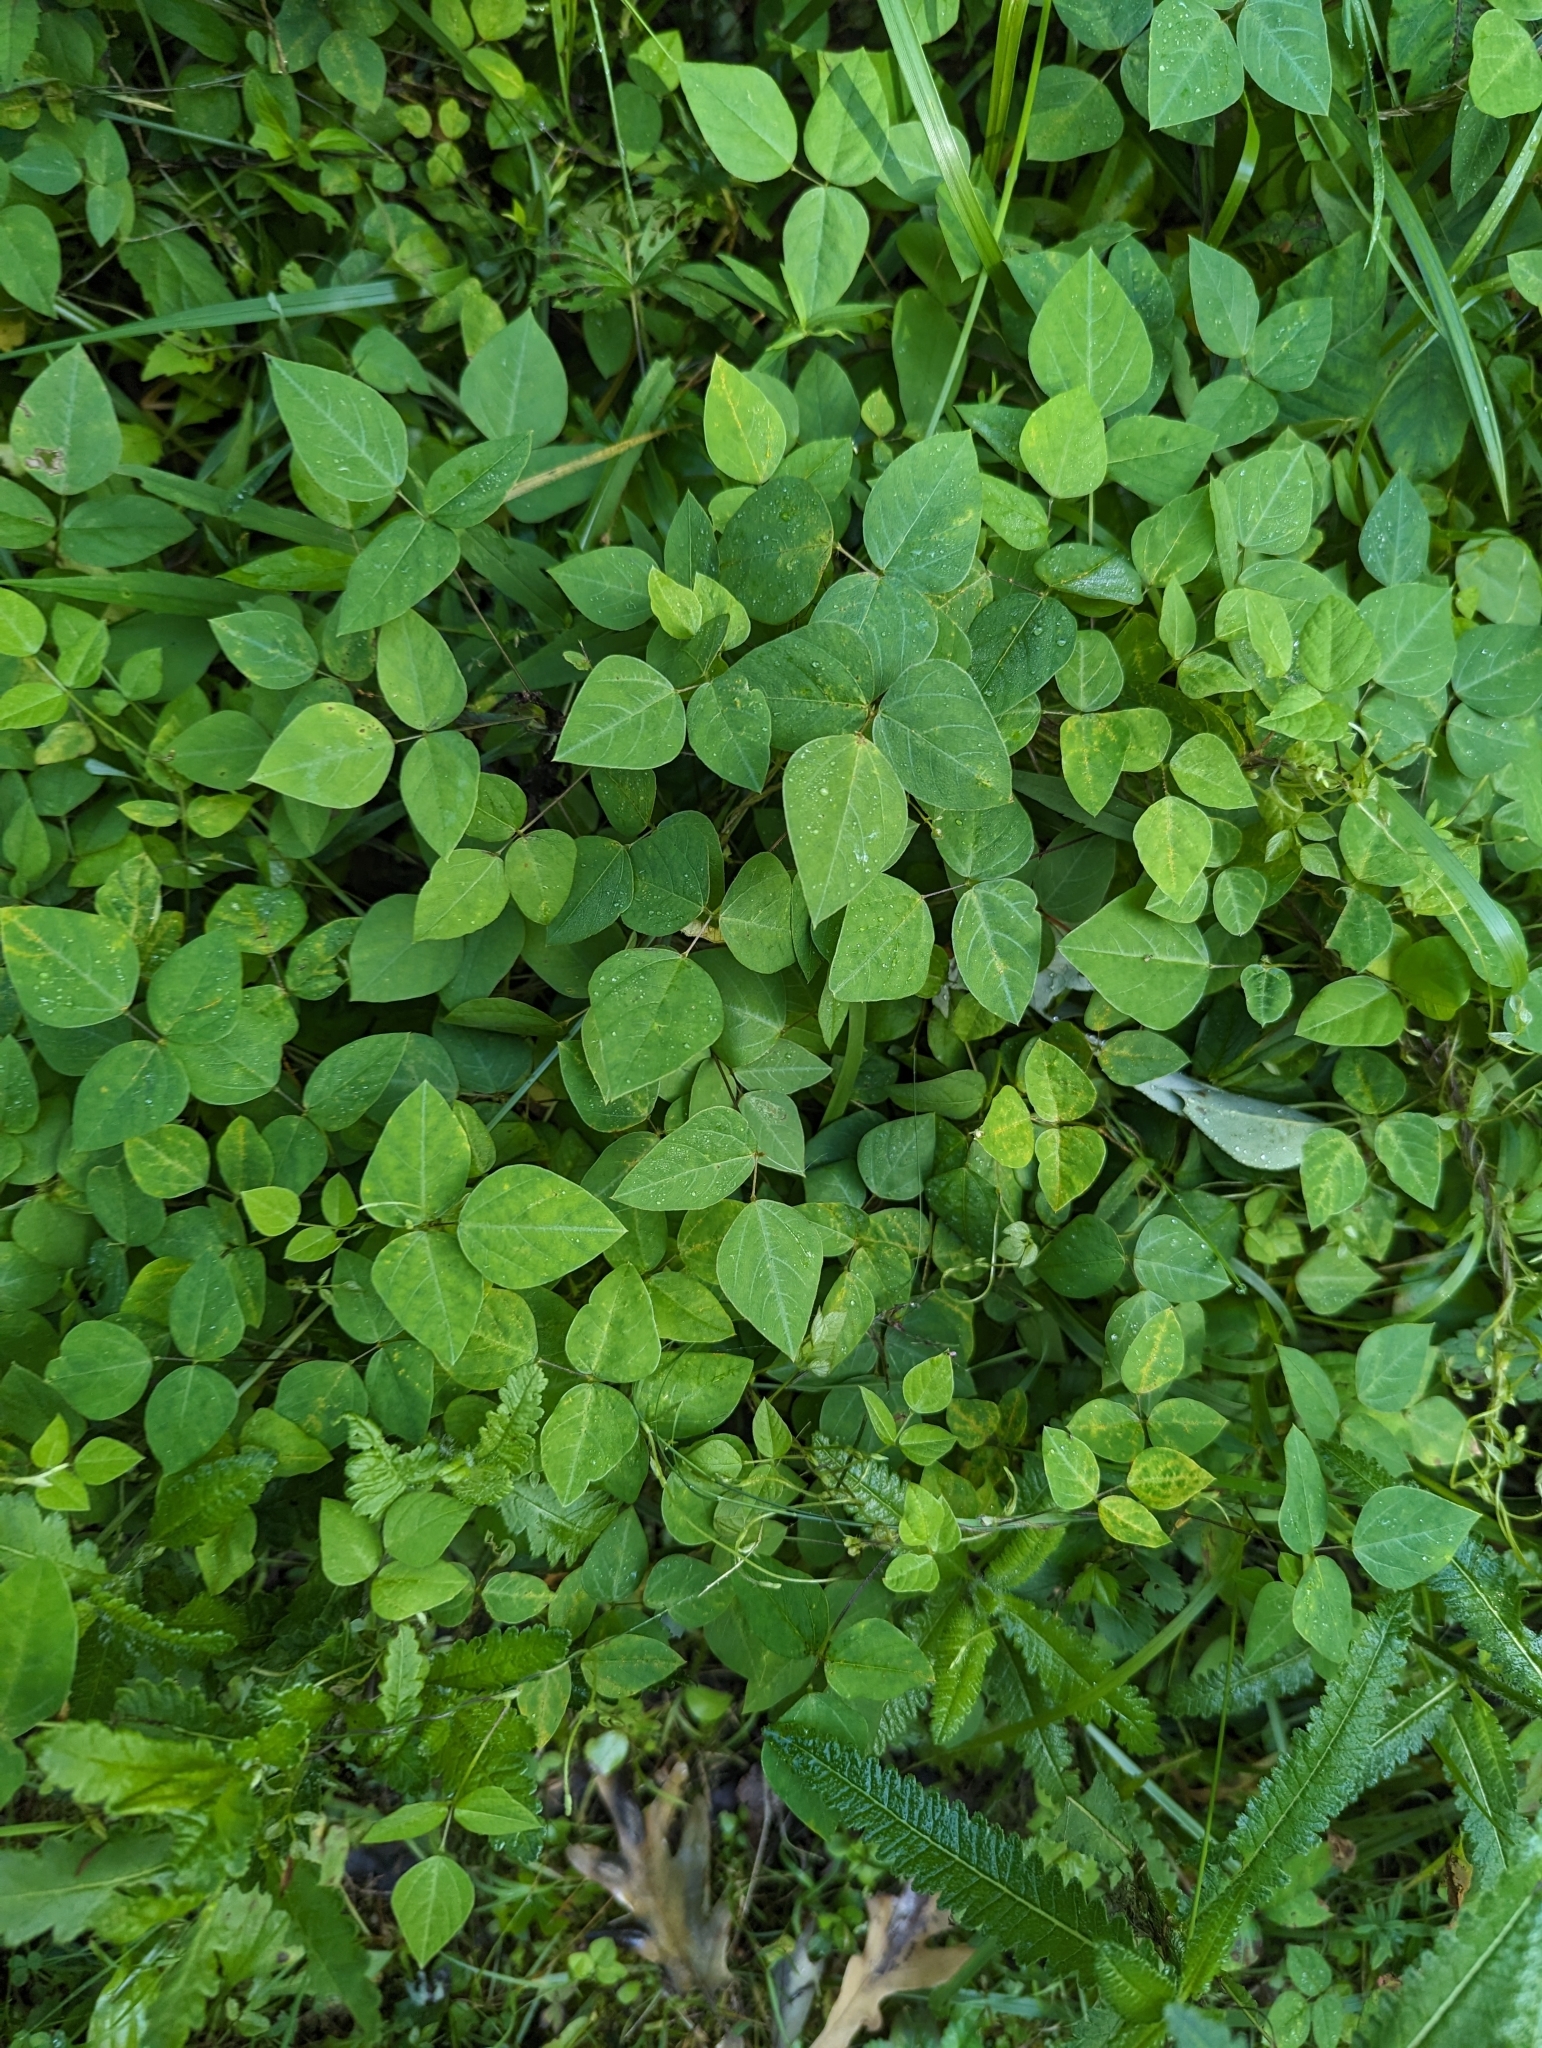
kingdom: Plantae
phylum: Tracheophyta
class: Magnoliopsida
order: Fabales
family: Fabaceae
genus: Amphicarpaea
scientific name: Amphicarpaea bracteata
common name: American hog peanut
